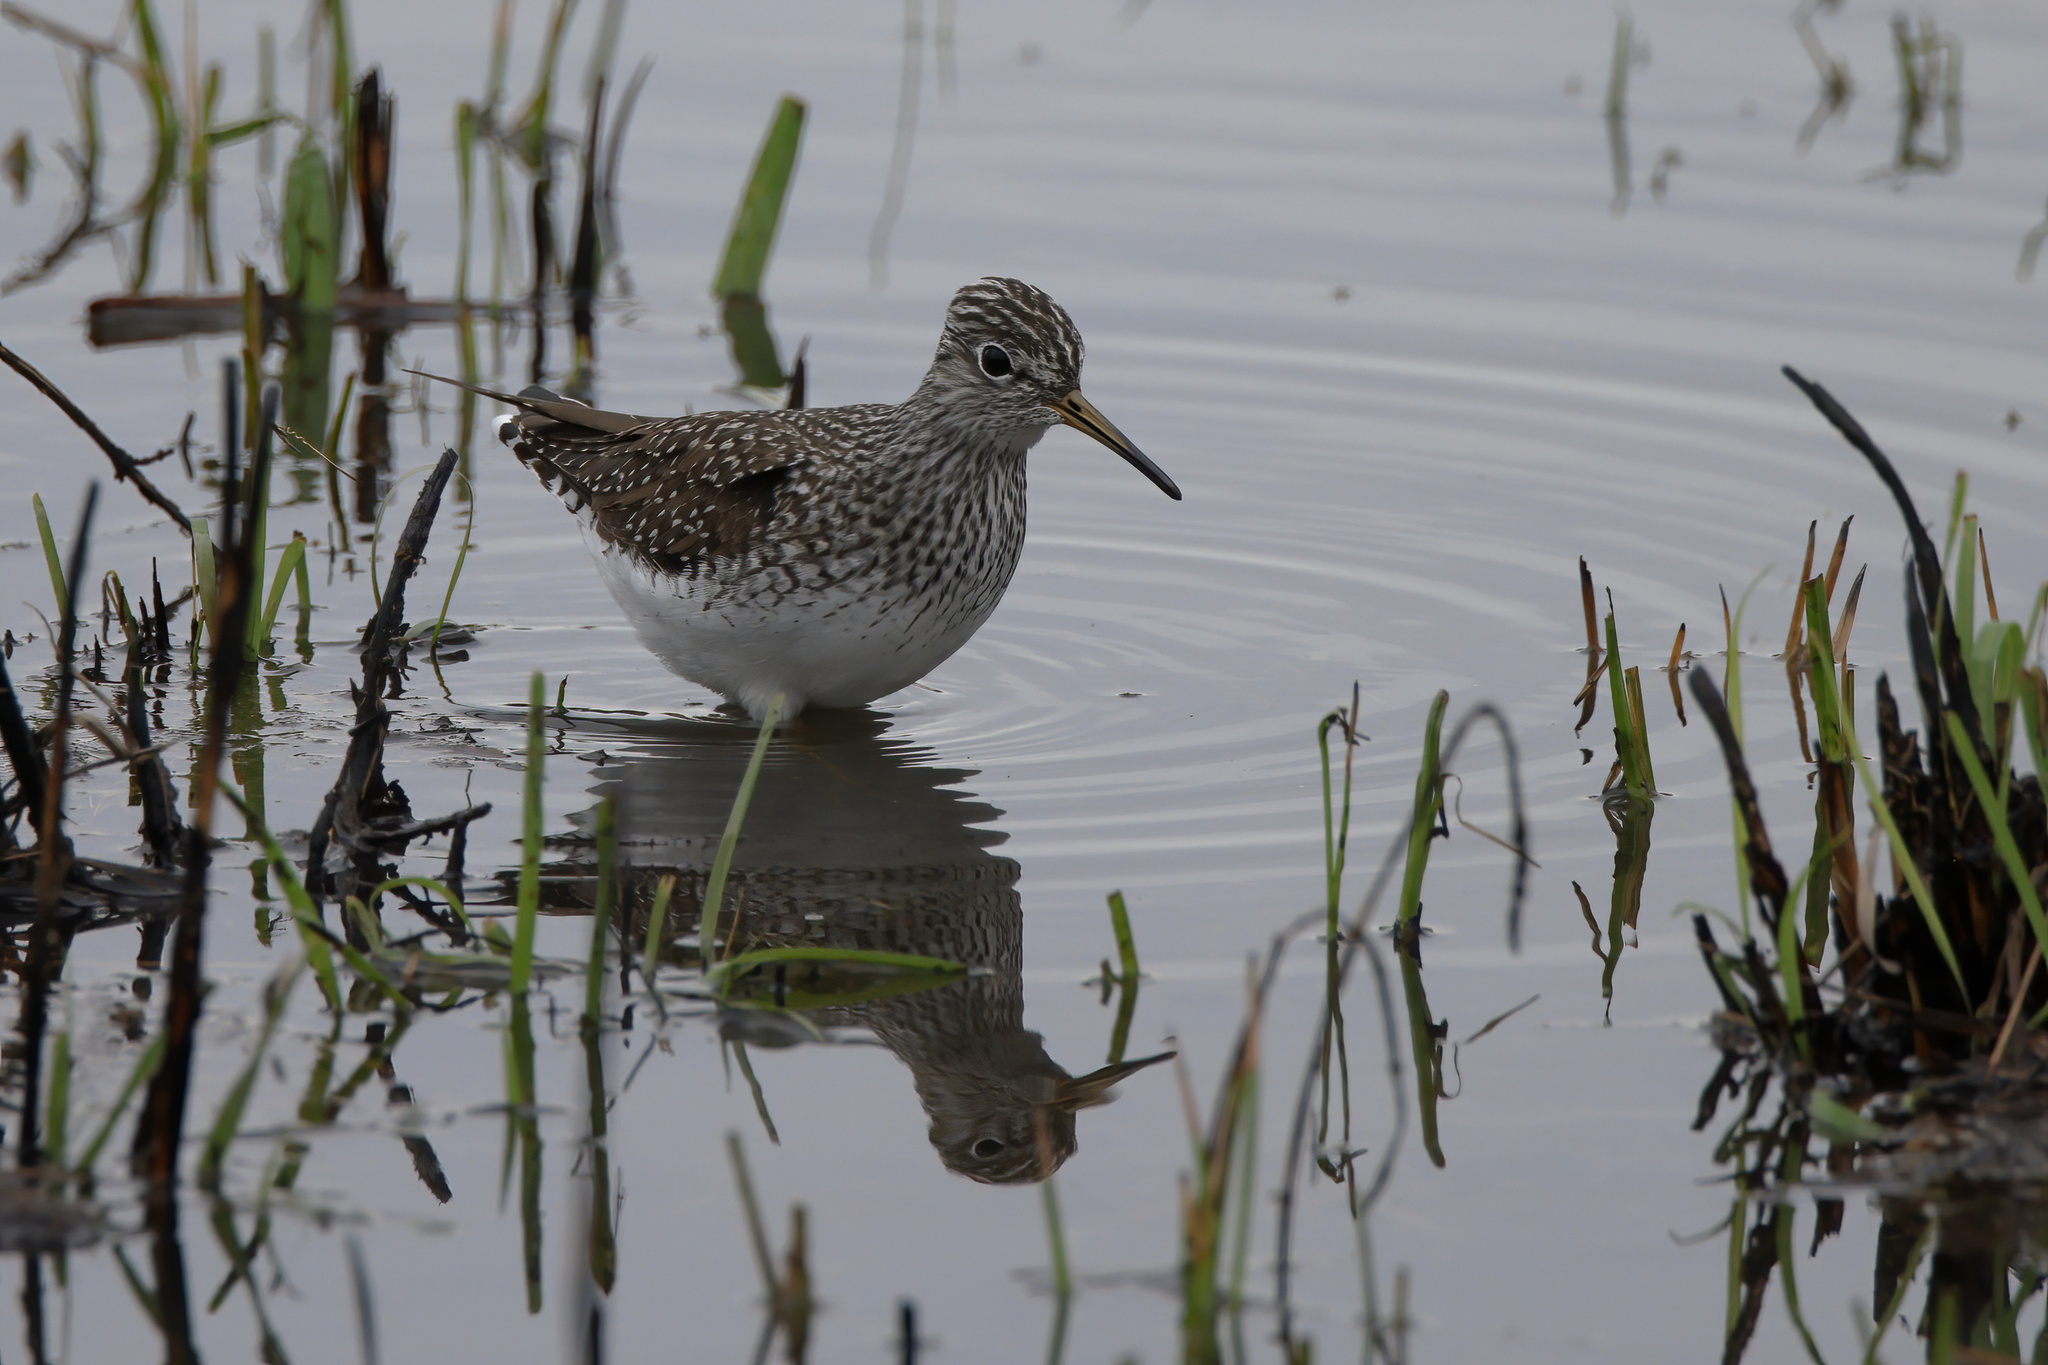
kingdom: Animalia
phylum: Chordata
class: Aves
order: Charadriiformes
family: Scolopacidae
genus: Tringa
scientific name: Tringa solitaria
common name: Solitary sandpiper
